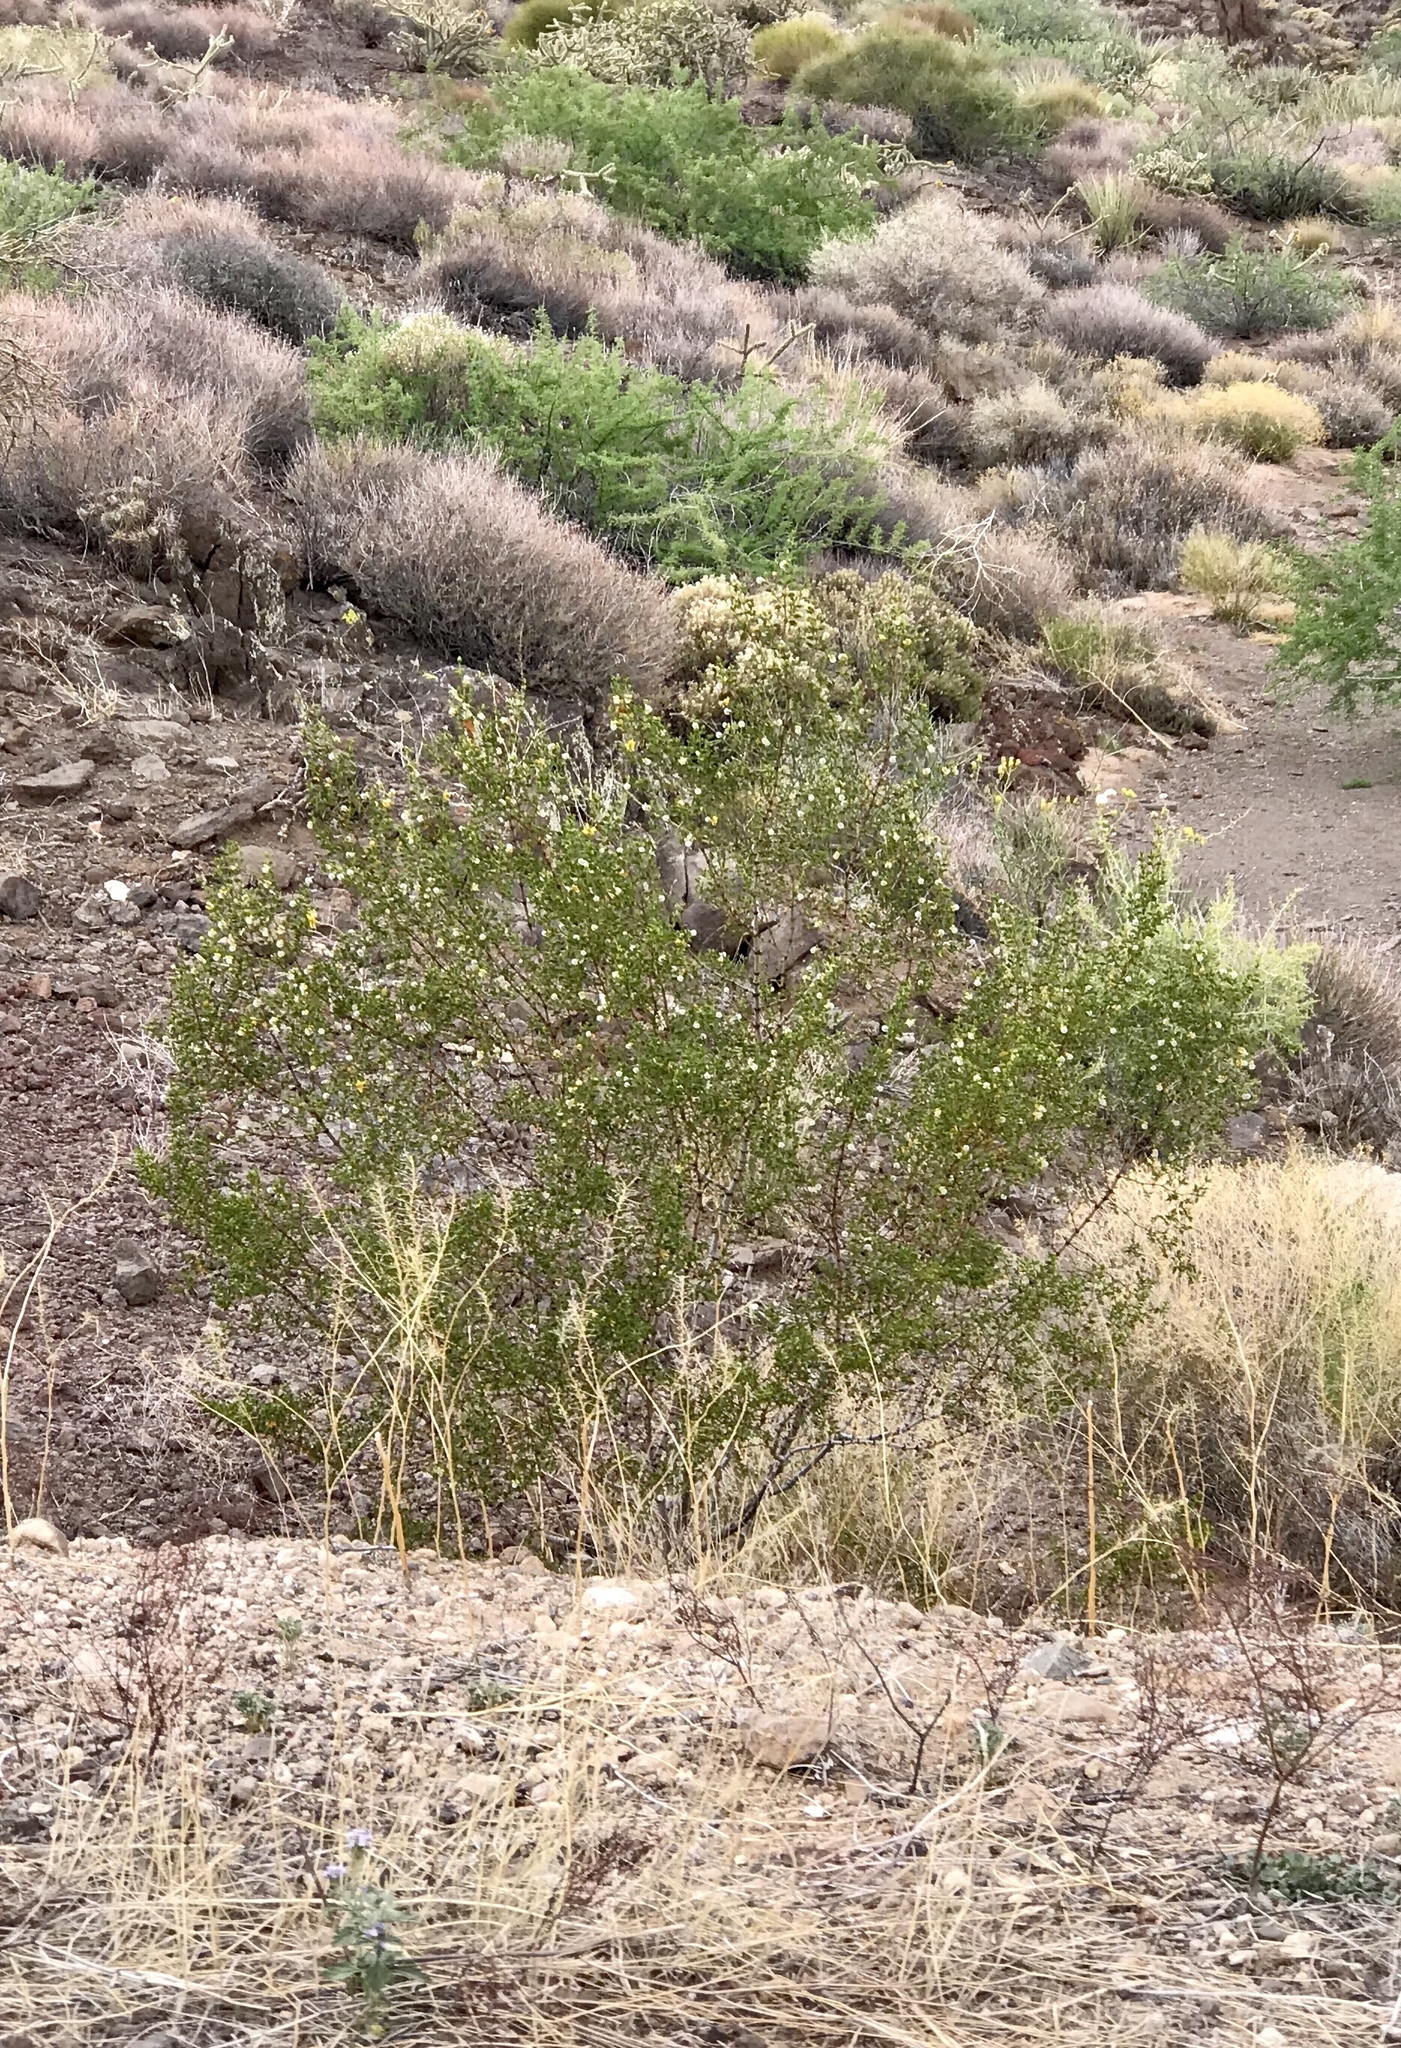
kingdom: Plantae
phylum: Tracheophyta
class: Magnoliopsida
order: Zygophyllales
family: Zygophyllaceae
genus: Larrea
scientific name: Larrea tridentata
